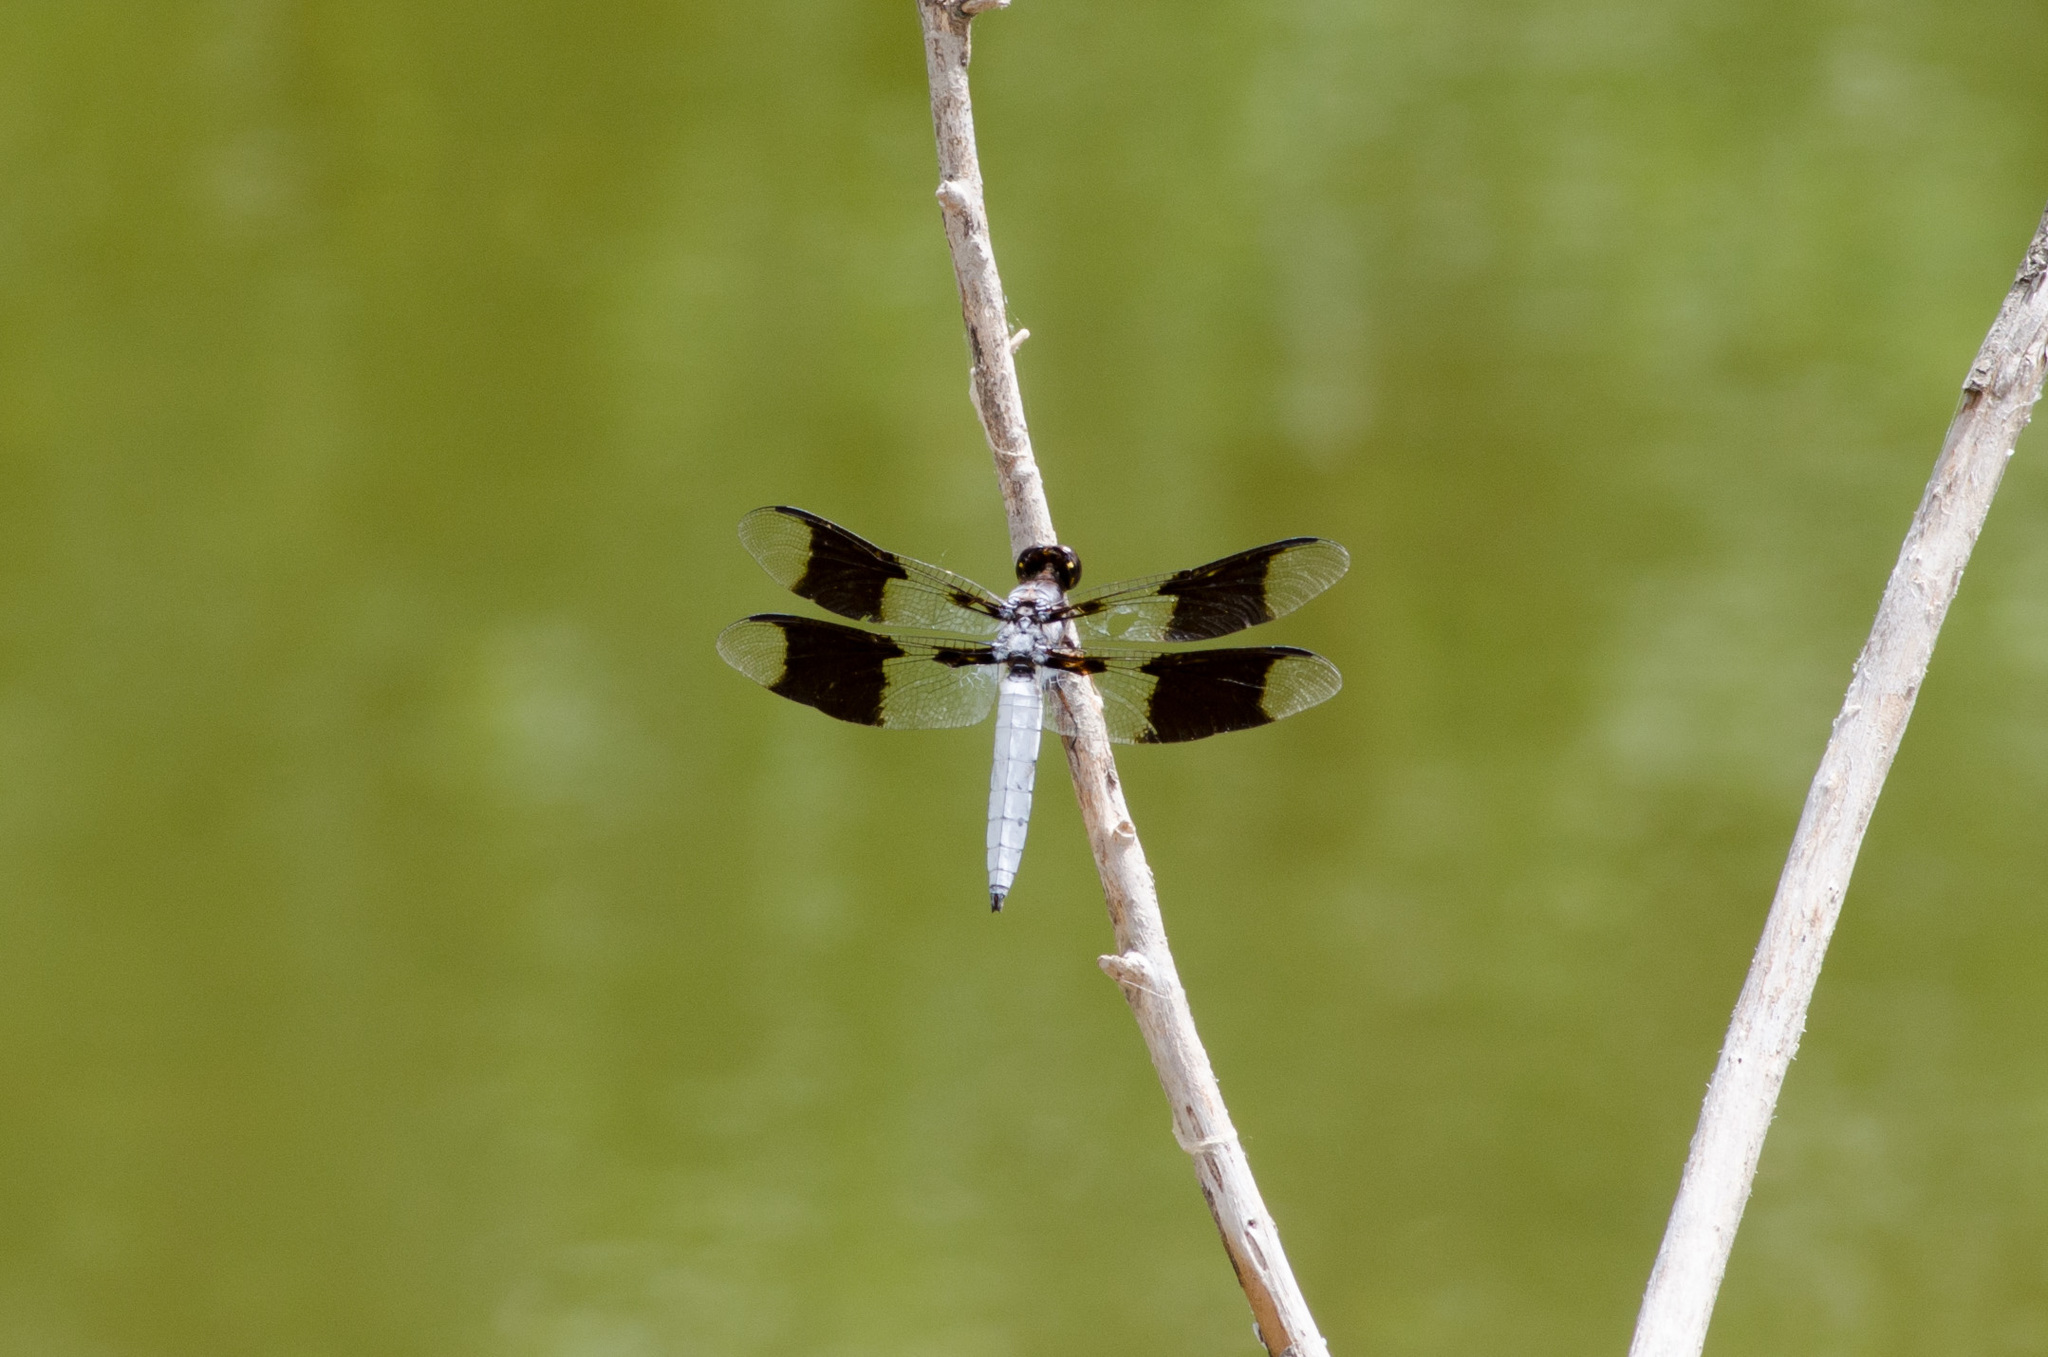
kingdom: Animalia
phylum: Arthropoda
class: Insecta
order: Odonata
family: Libellulidae
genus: Plathemis
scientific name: Plathemis lydia
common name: Common whitetail
